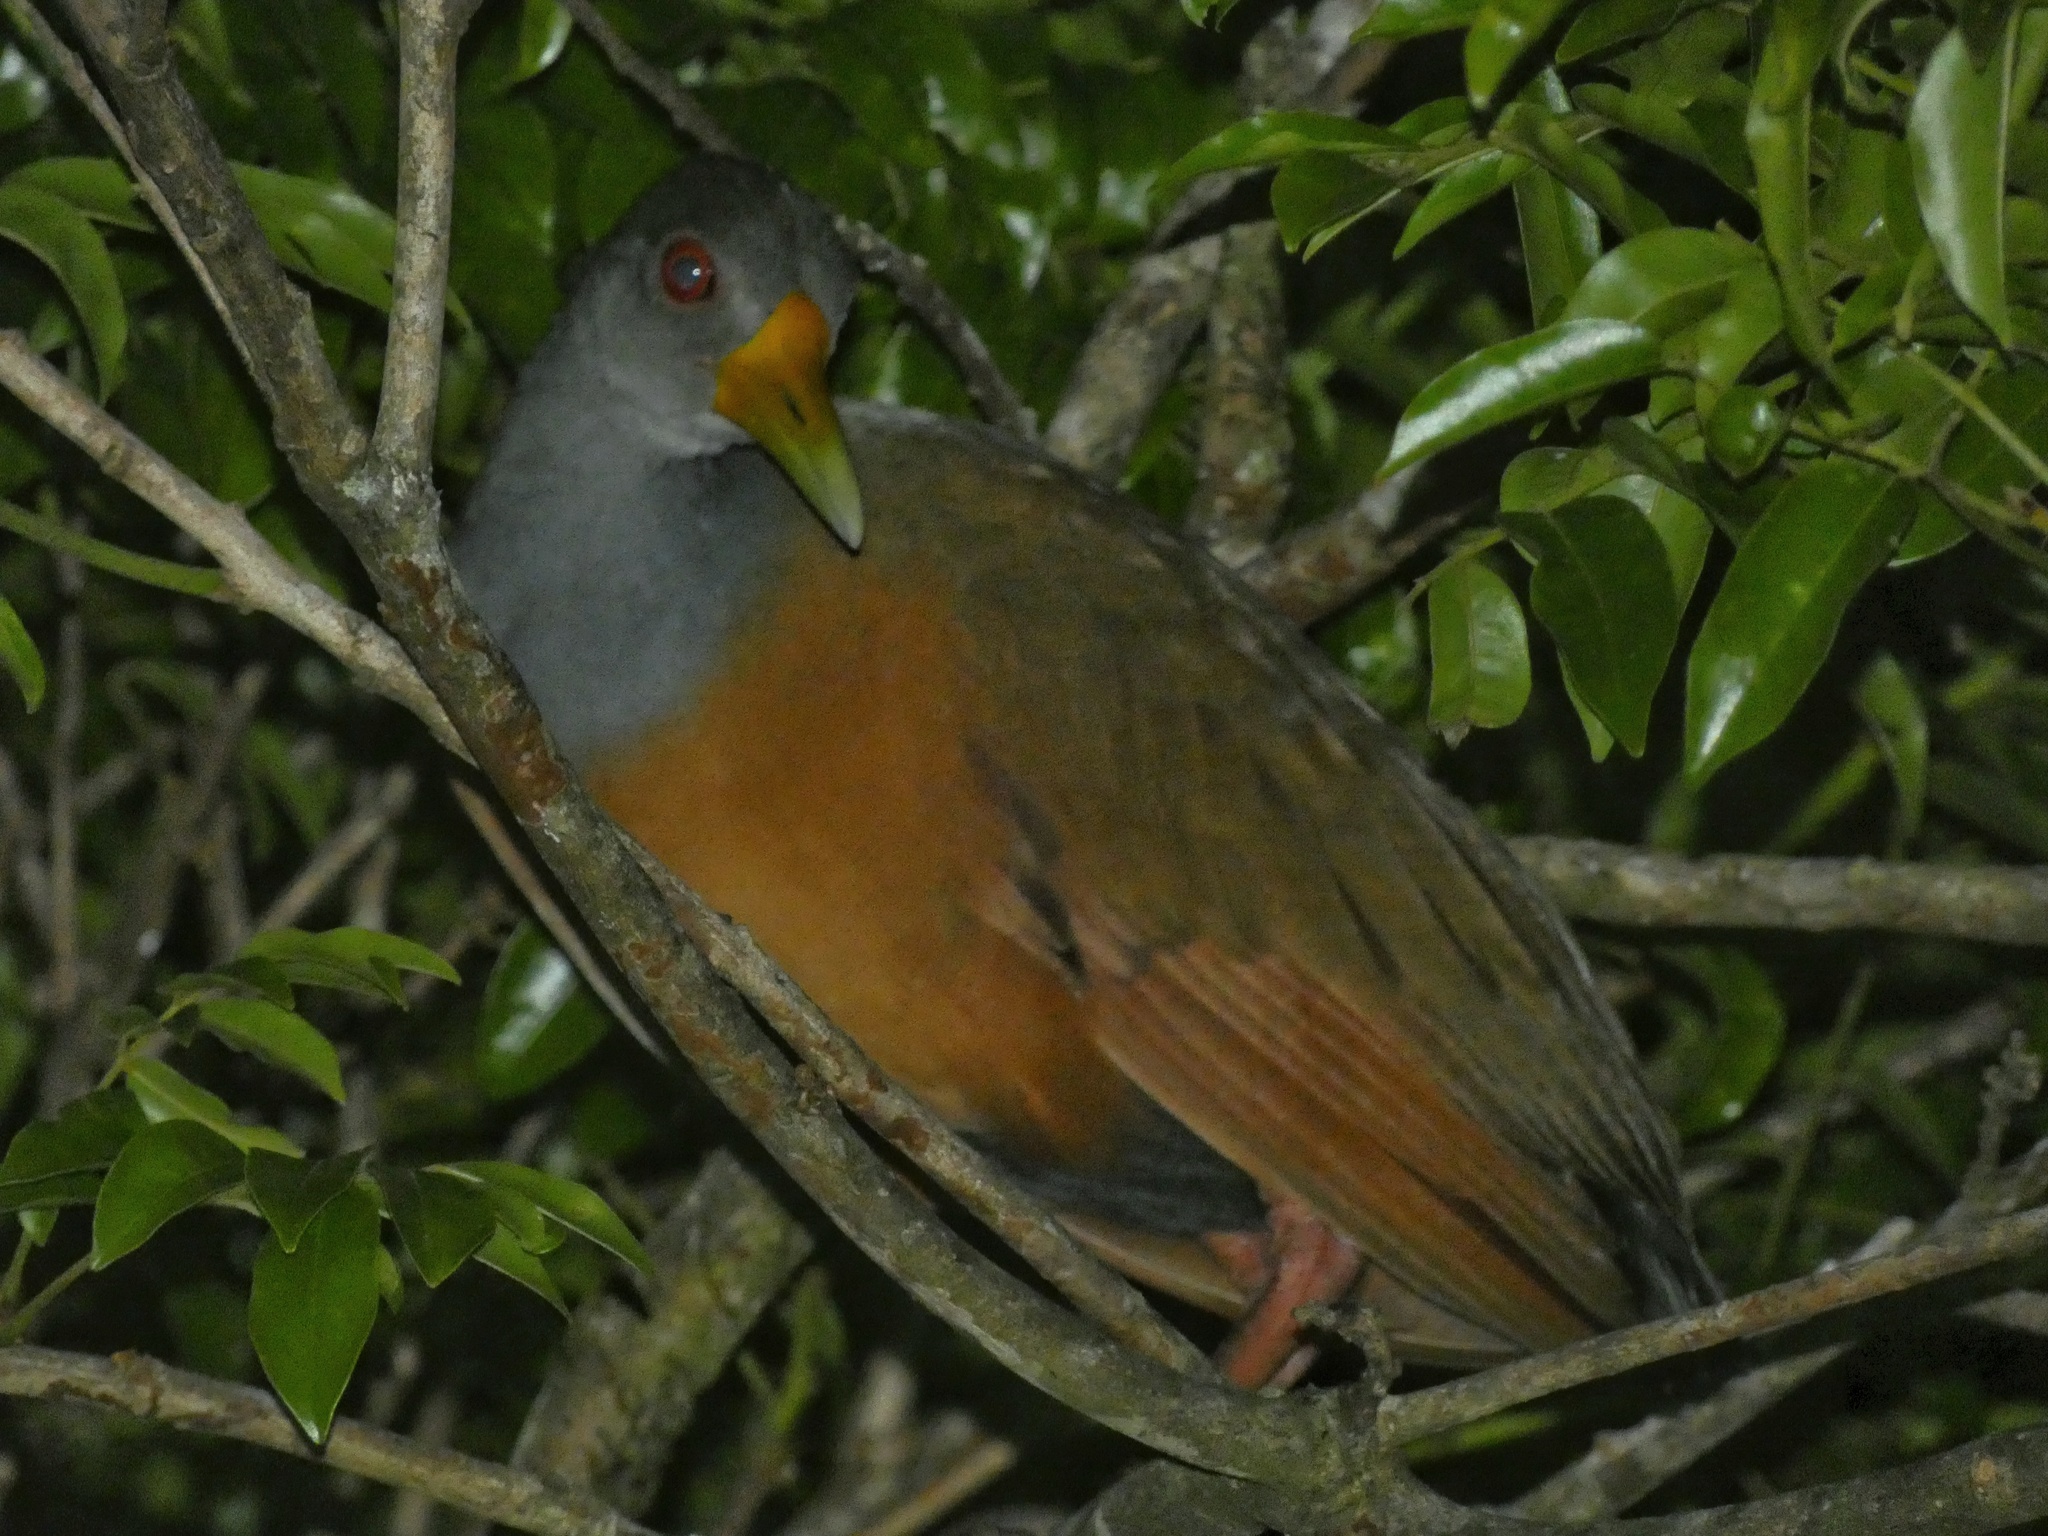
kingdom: Animalia
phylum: Chordata
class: Aves
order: Gruiformes
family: Rallidae
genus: Aramides
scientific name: Aramides cajanea
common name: Gray-necked wood-rail
